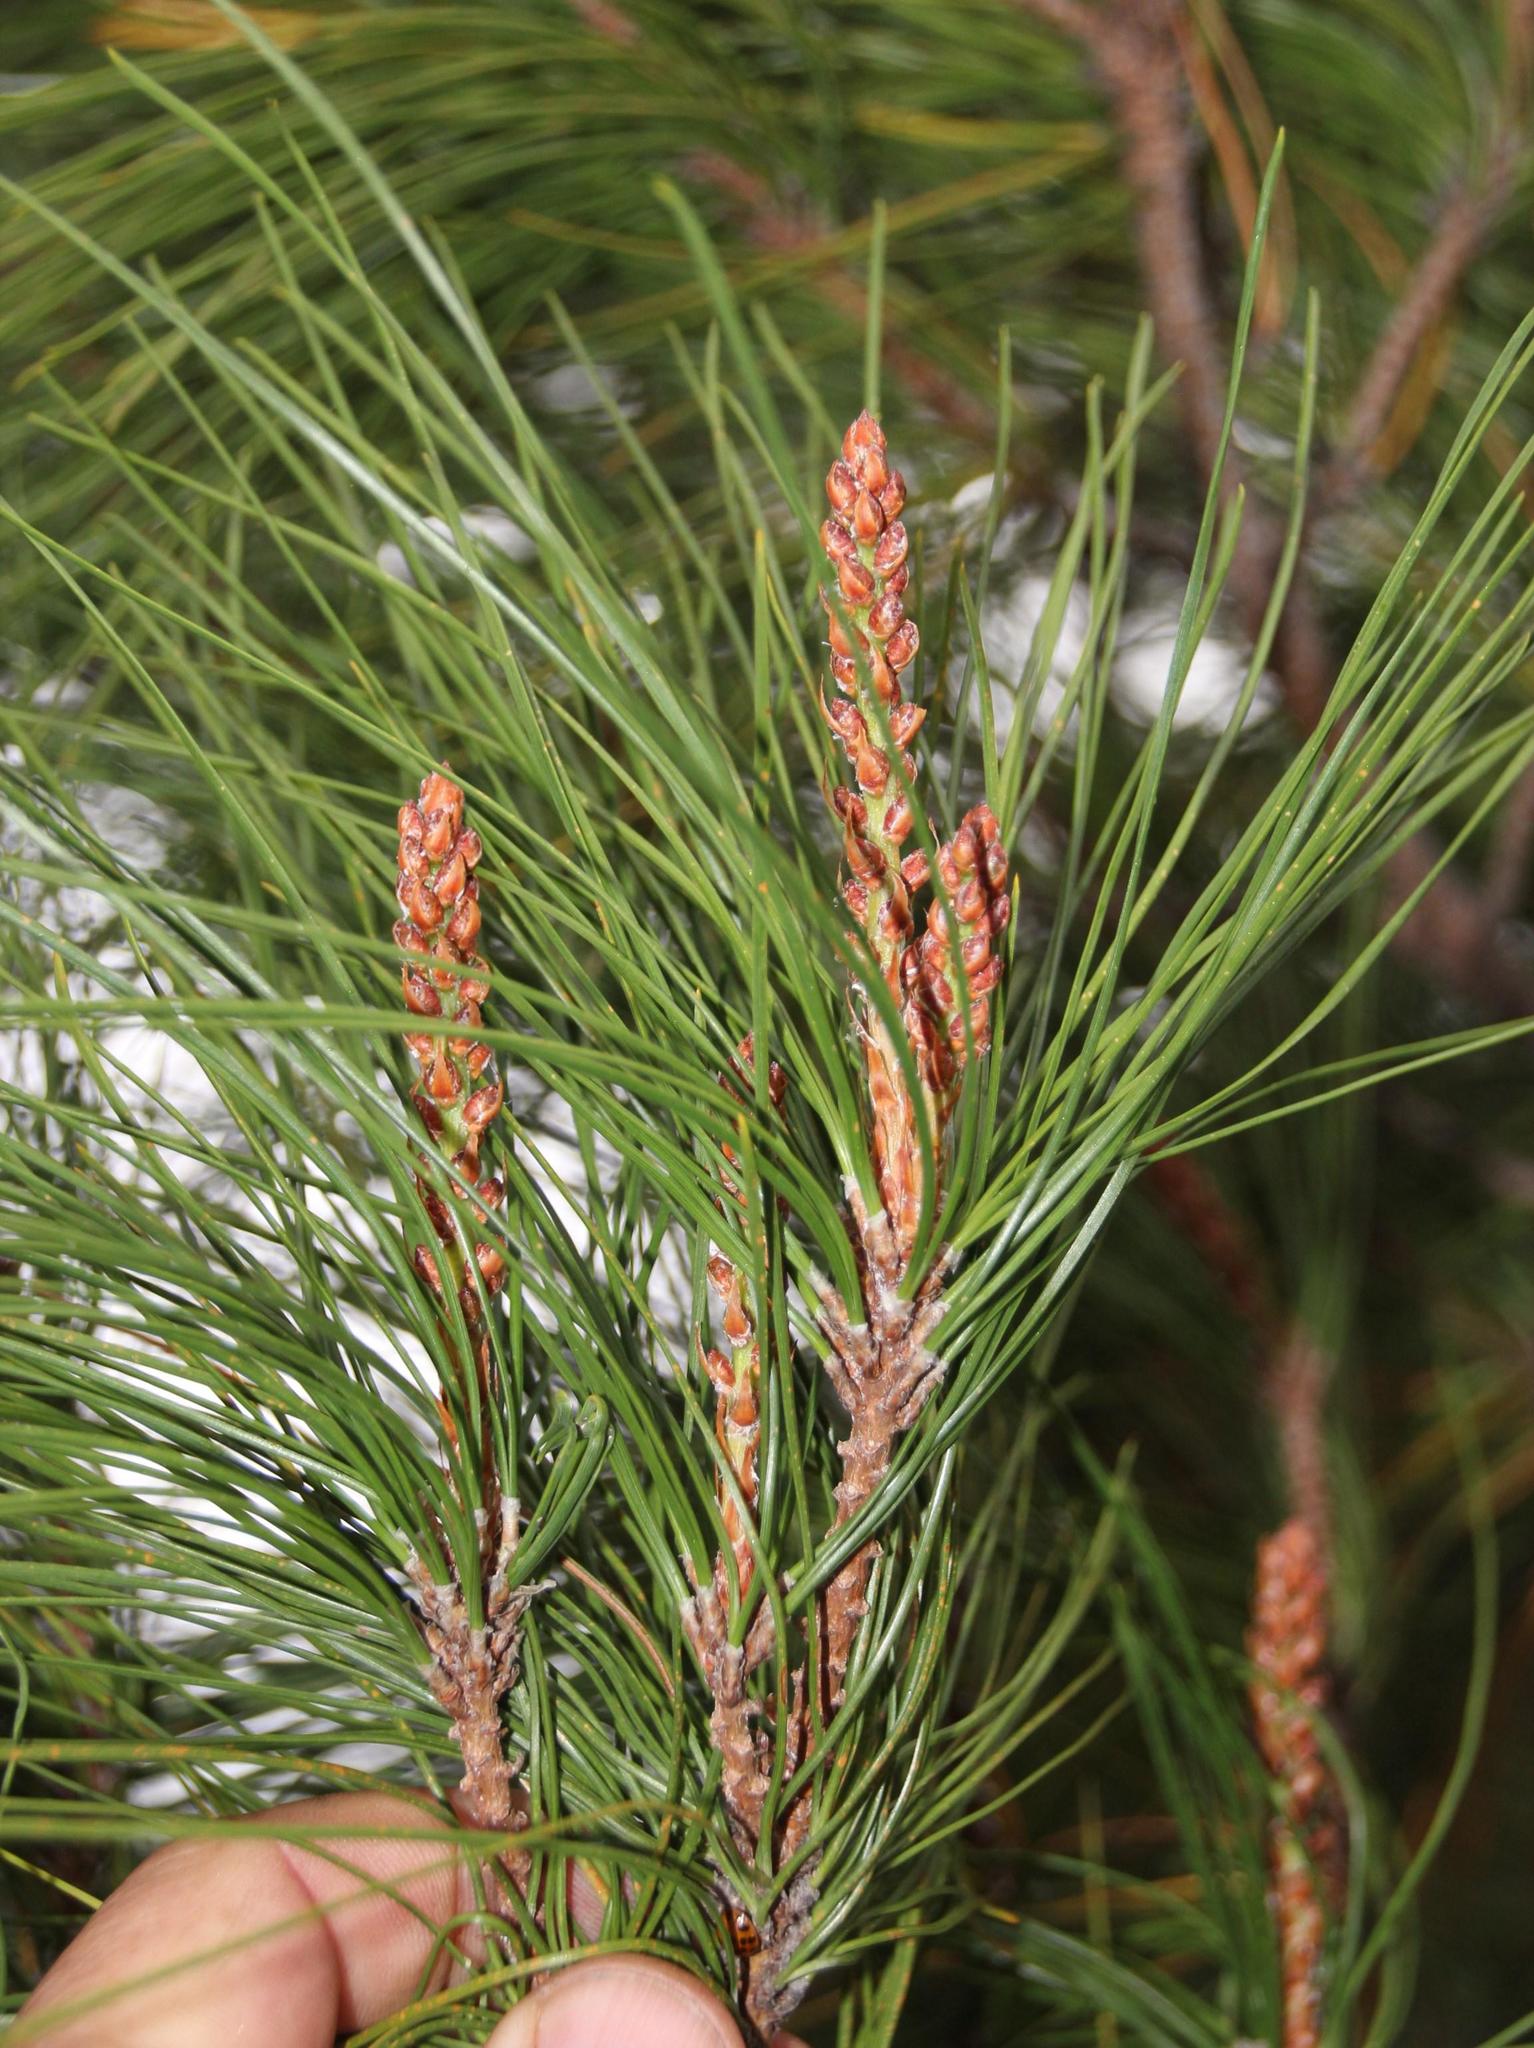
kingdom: Plantae
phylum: Tracheophyta
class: Pinopsida
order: Pinales
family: Pinaceae
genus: Pinus
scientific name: Pinus radiata
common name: Monterey pine
